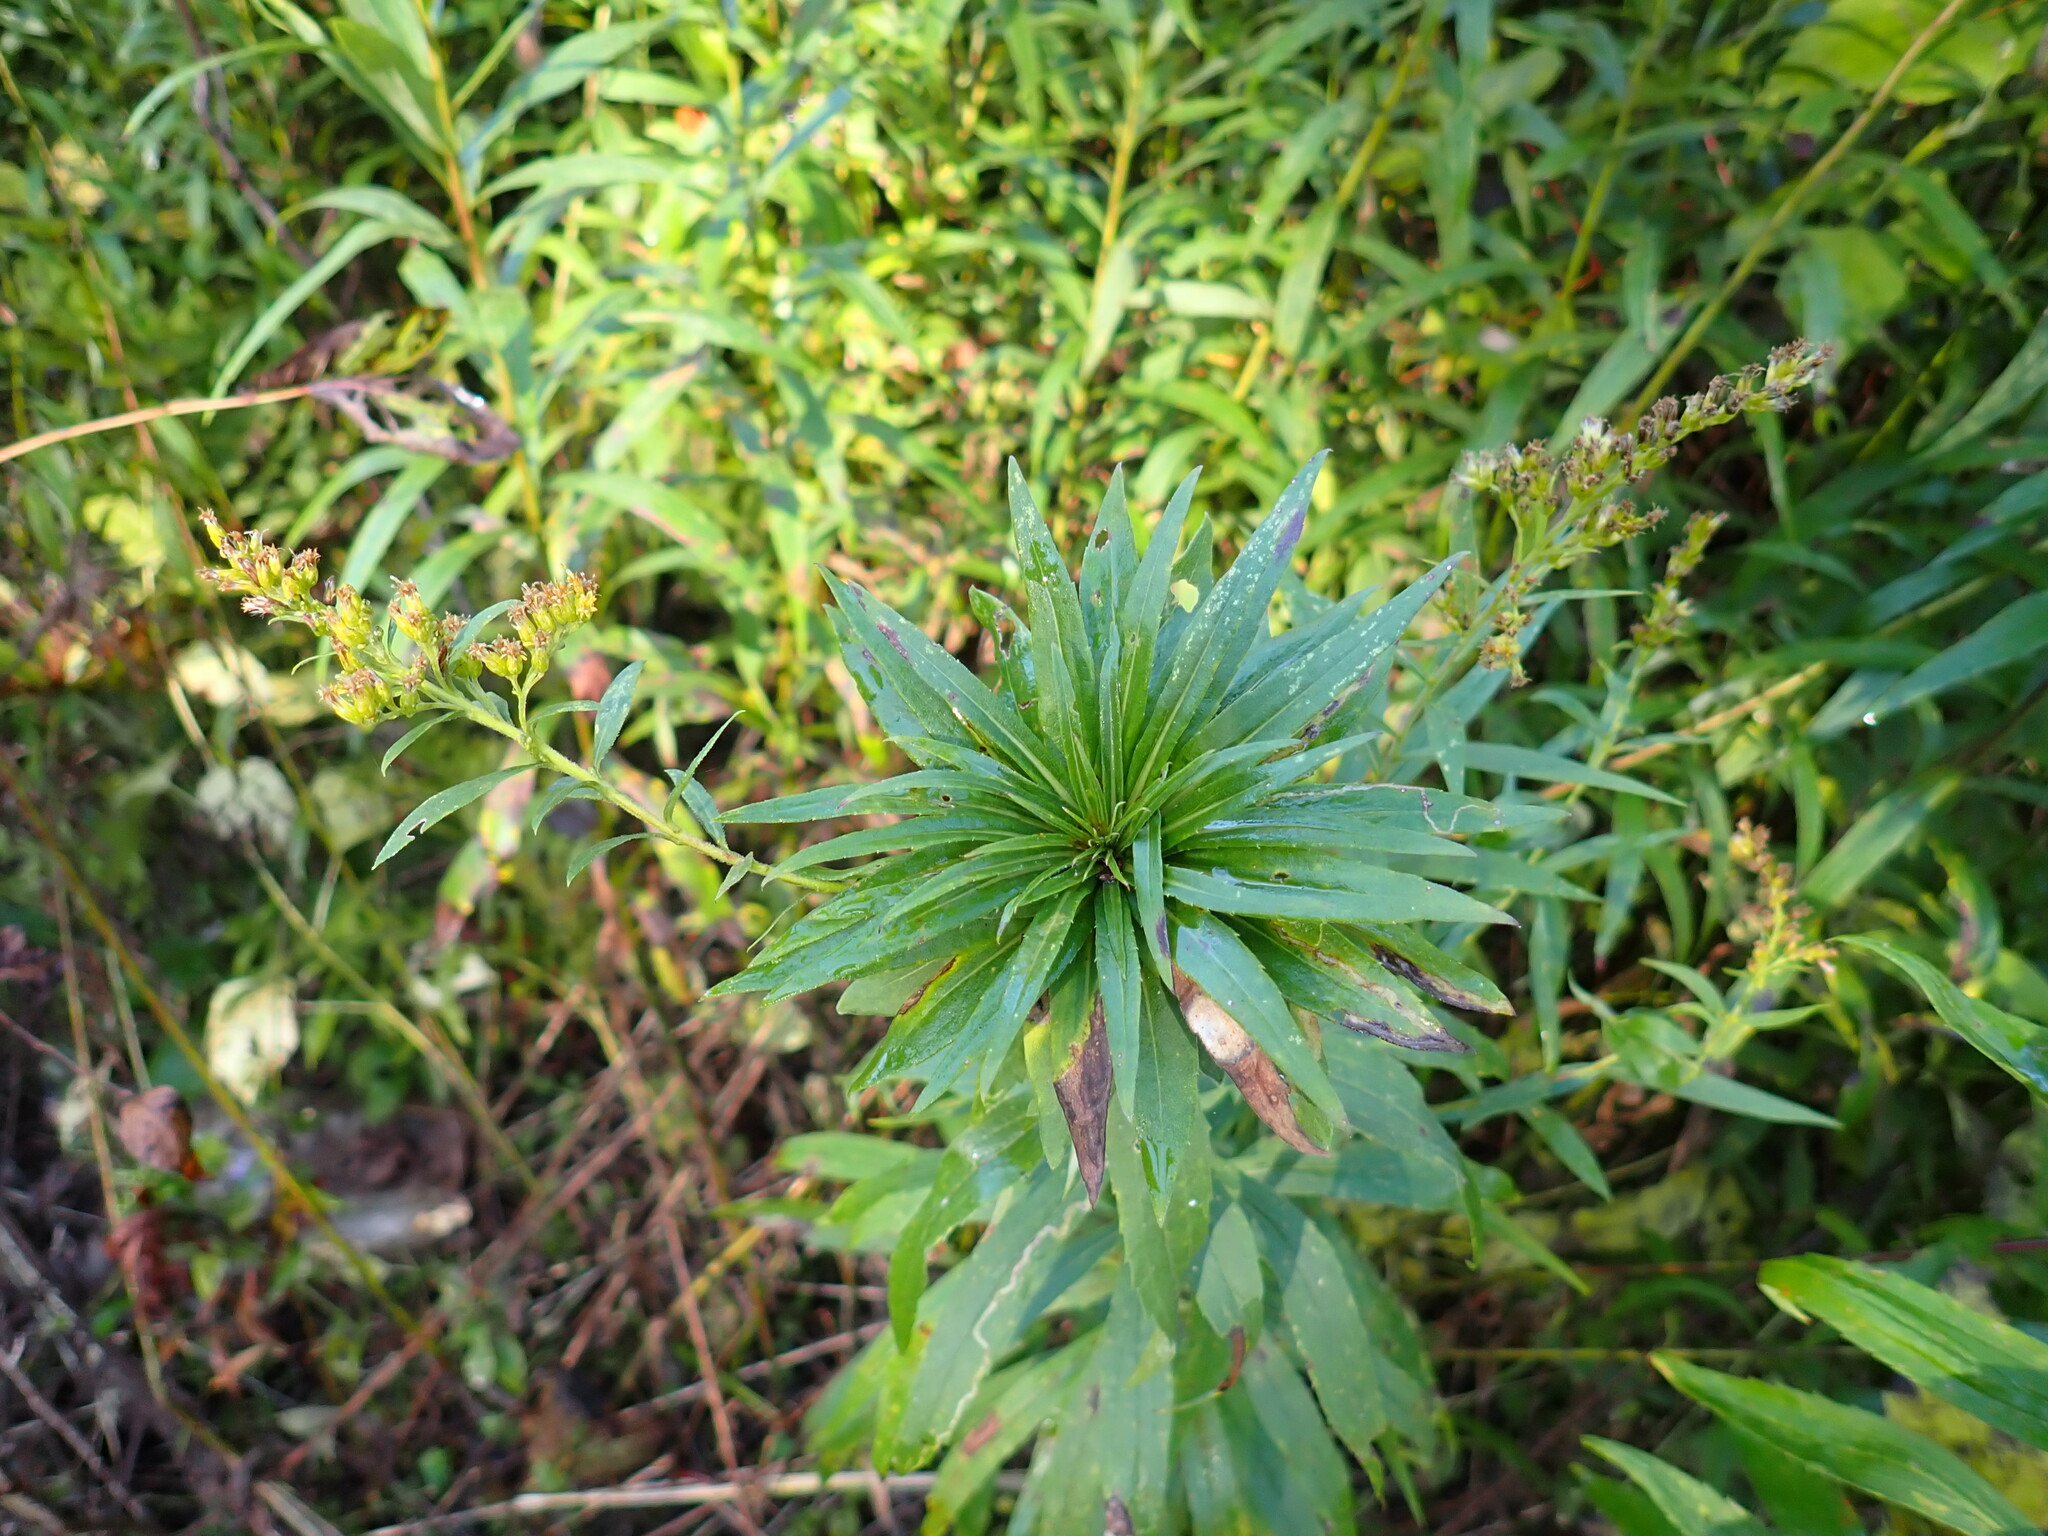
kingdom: Animalia
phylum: Arthropoda
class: Insecta
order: Diptera
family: Cecidomyiidae
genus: Rhopalomyia
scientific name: Rhopalomyia solidaginis
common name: Goldenrod bunch gall midge
